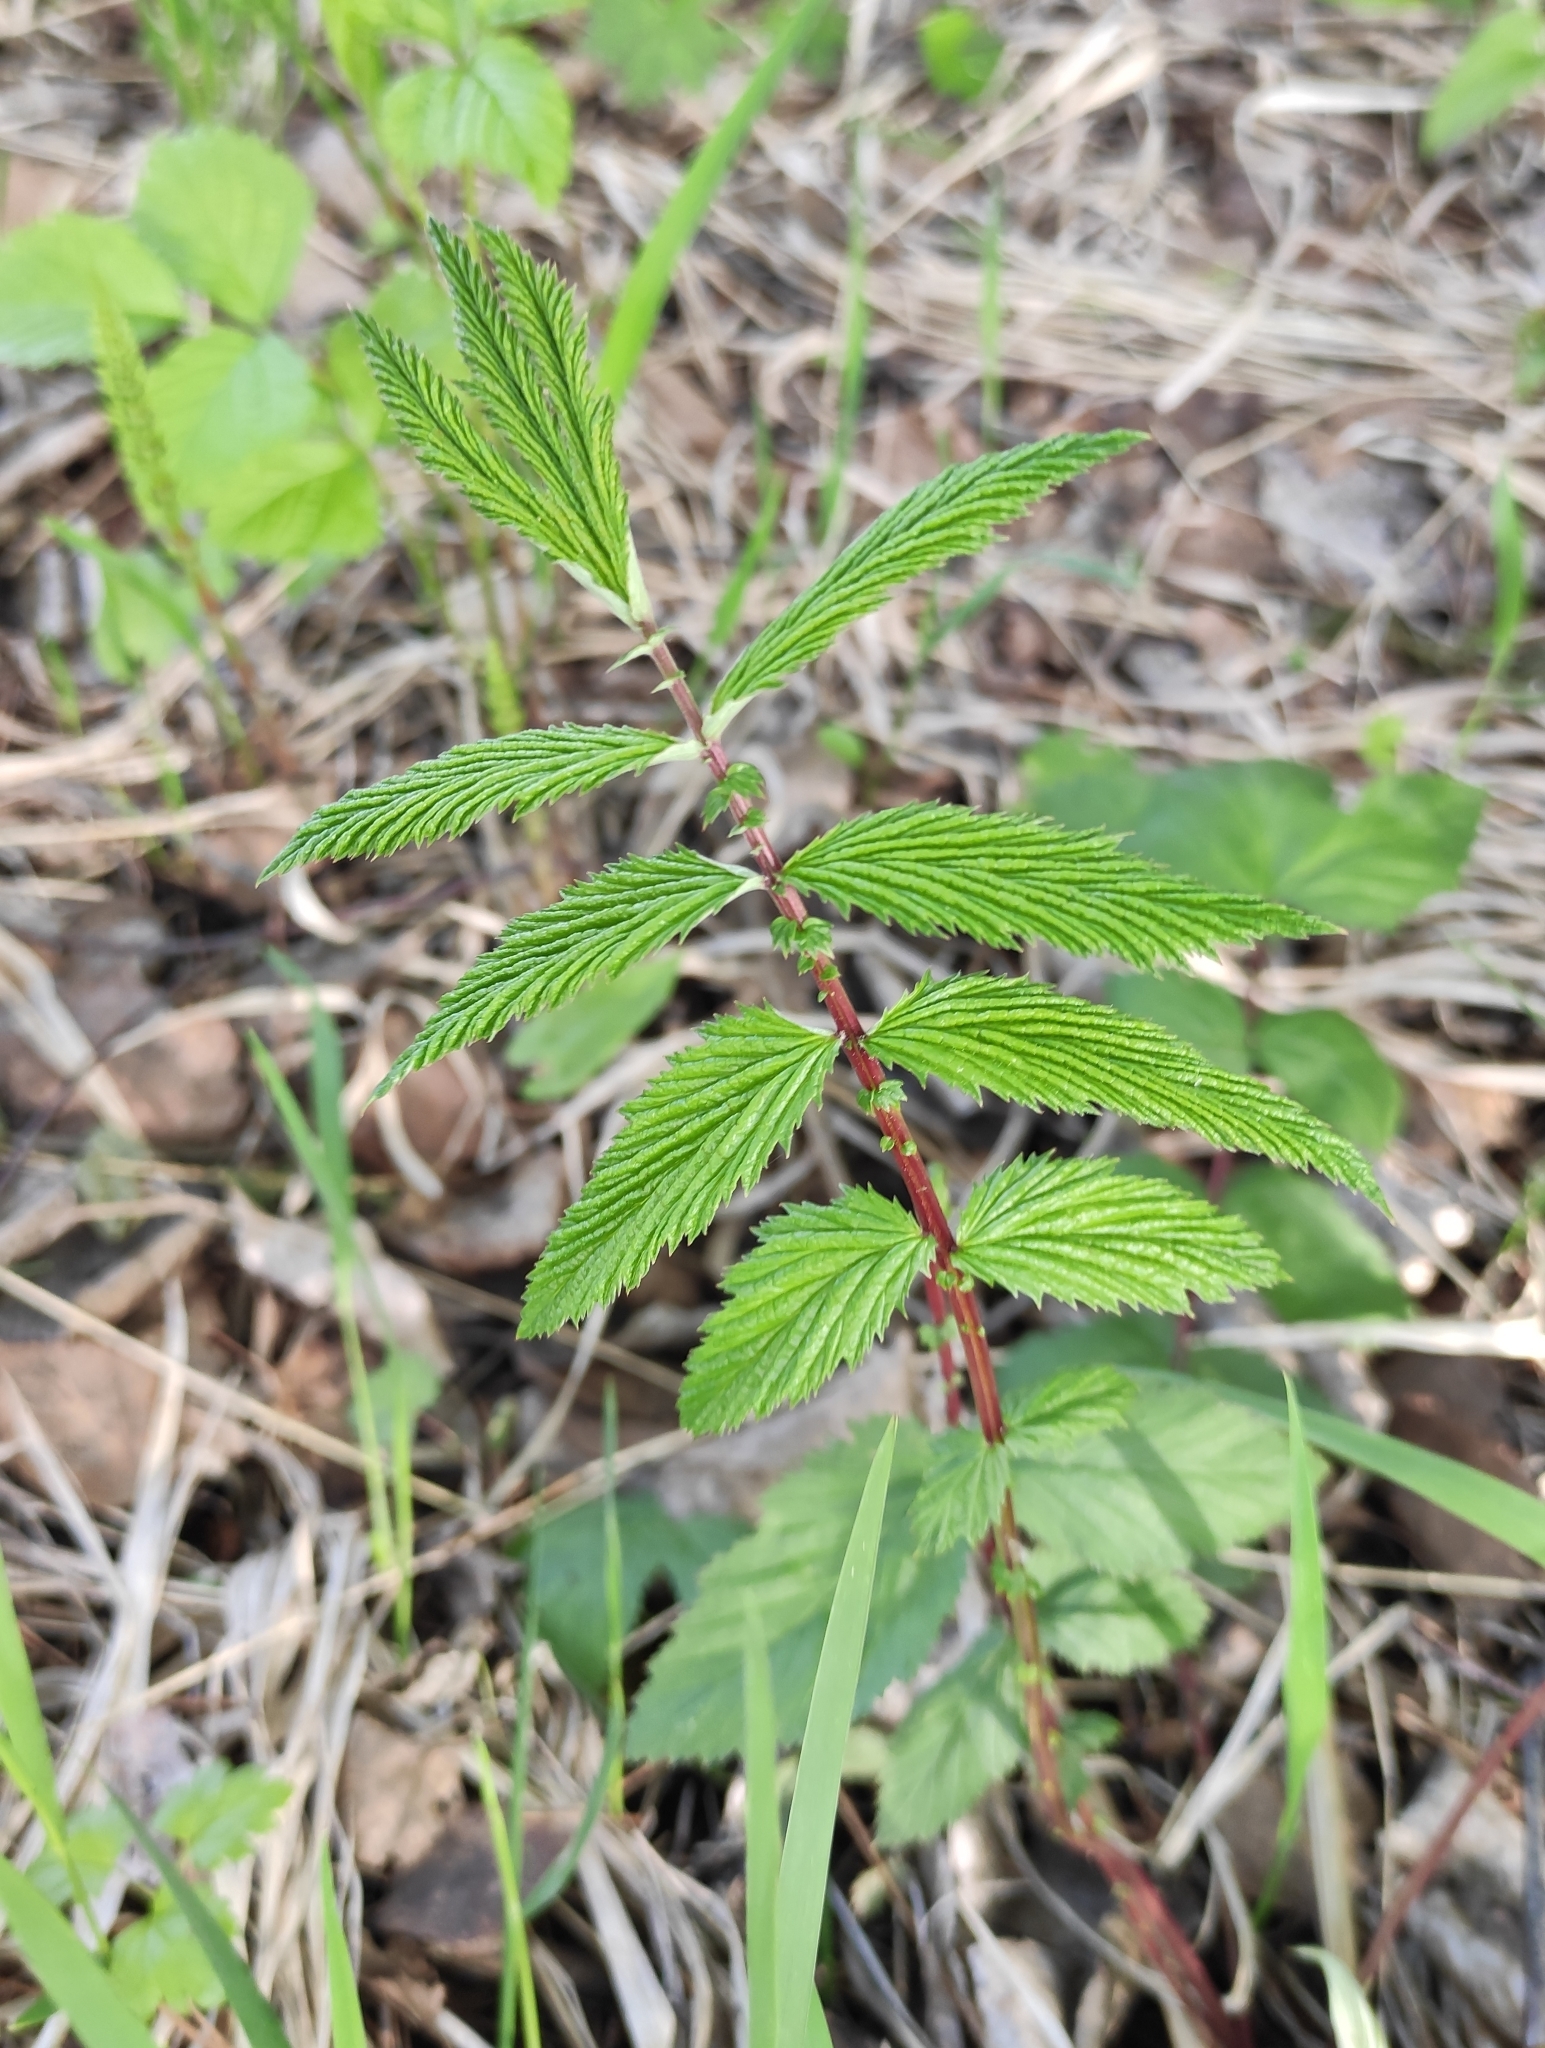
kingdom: Plantae
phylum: Tracheophyta
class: Magnoliopsida
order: Rosales
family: Rosaceae
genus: Filipendula
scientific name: Filipendula ulmaria
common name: Meadowsweet
